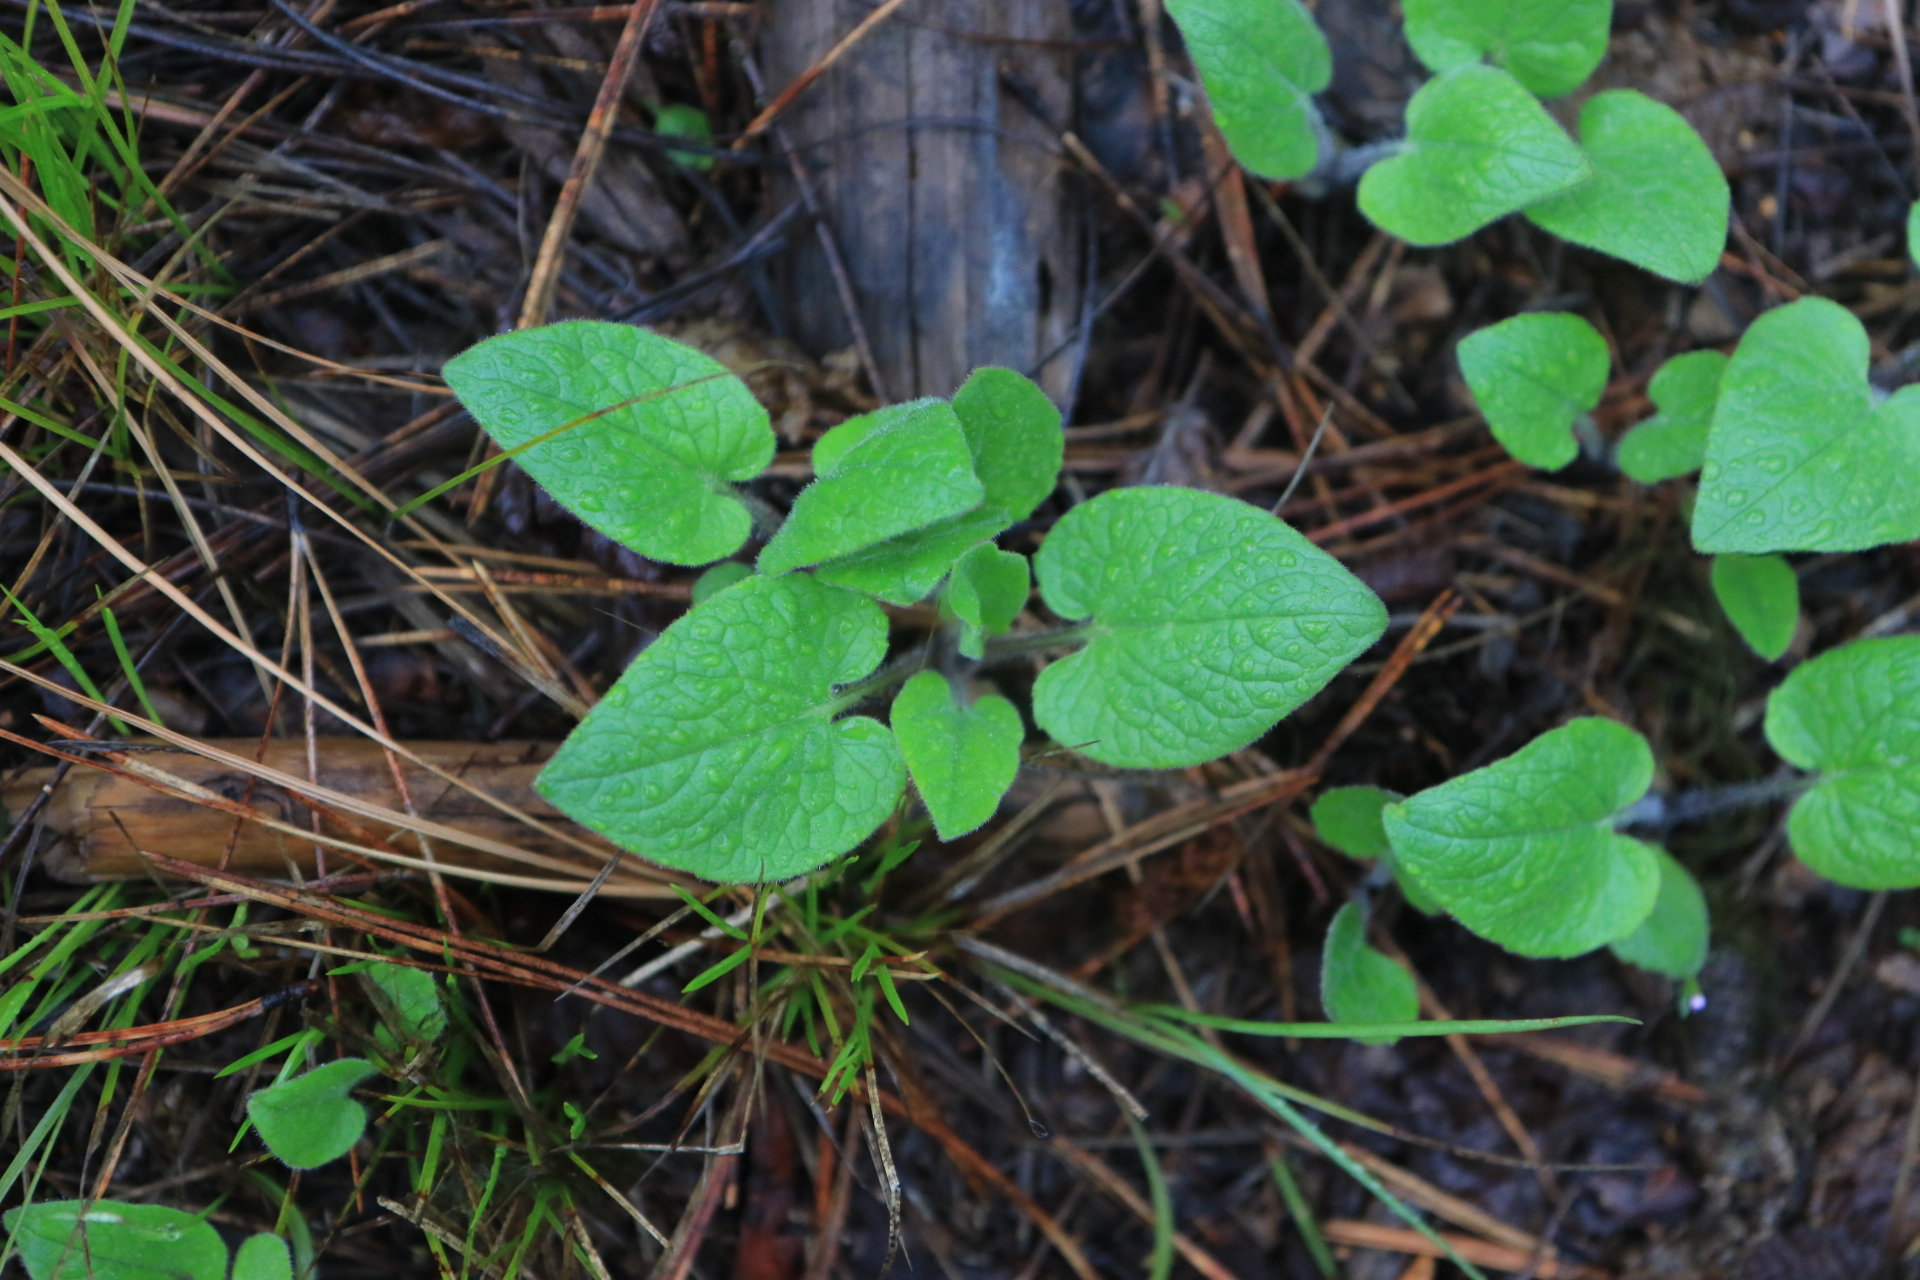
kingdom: Plantae
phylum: Tracheophyta
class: Magnoliopsida
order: Asterales
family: Asteraceae
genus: Arnica
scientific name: Arnica cordifolia
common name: Heart-leaf arnica
